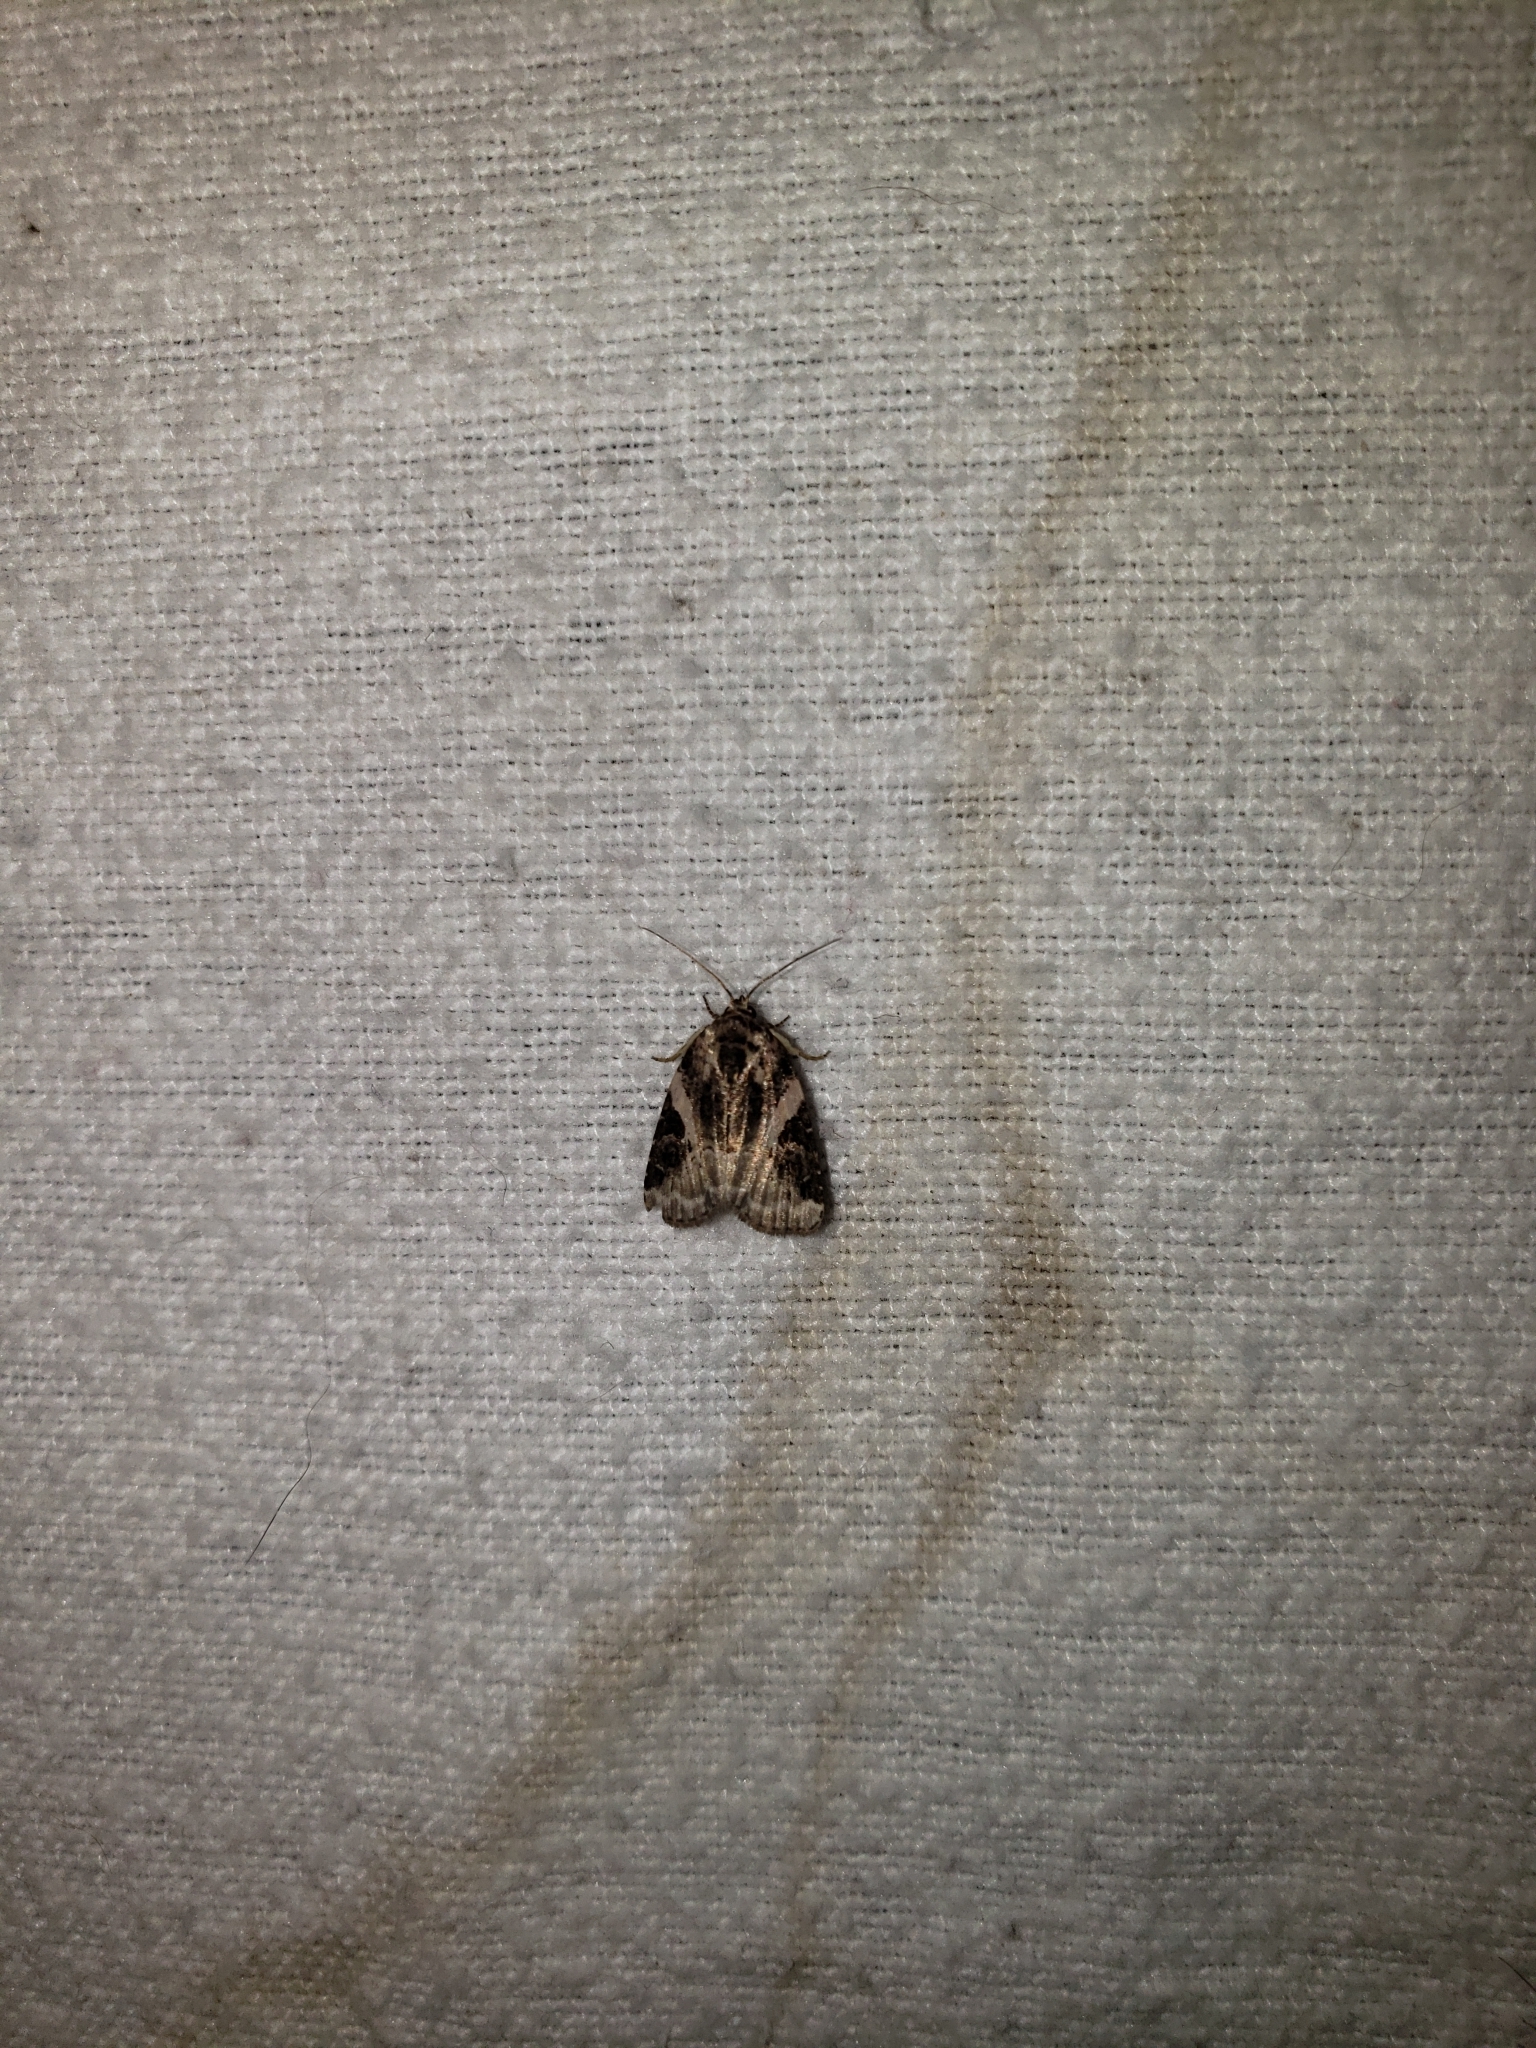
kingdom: Animalia
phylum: Arthropoda
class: Insecta
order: Lepidoptera
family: Noctuidae
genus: Pseudeustrotia
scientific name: Pseudeustrotia carneola
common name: Pink-barred lithacodia moth
